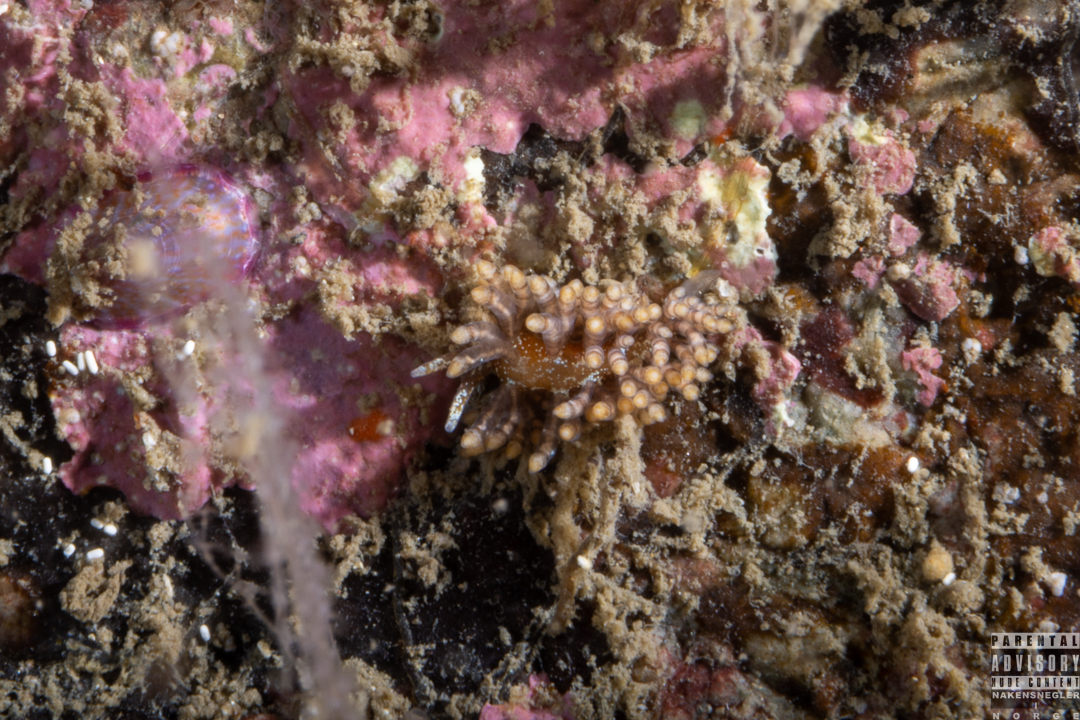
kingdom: Animalia
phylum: Mollusca
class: Gastropoda
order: Nudibranchia
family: Eubranchidae
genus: Eubranchus
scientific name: Eubranchus vittatus
